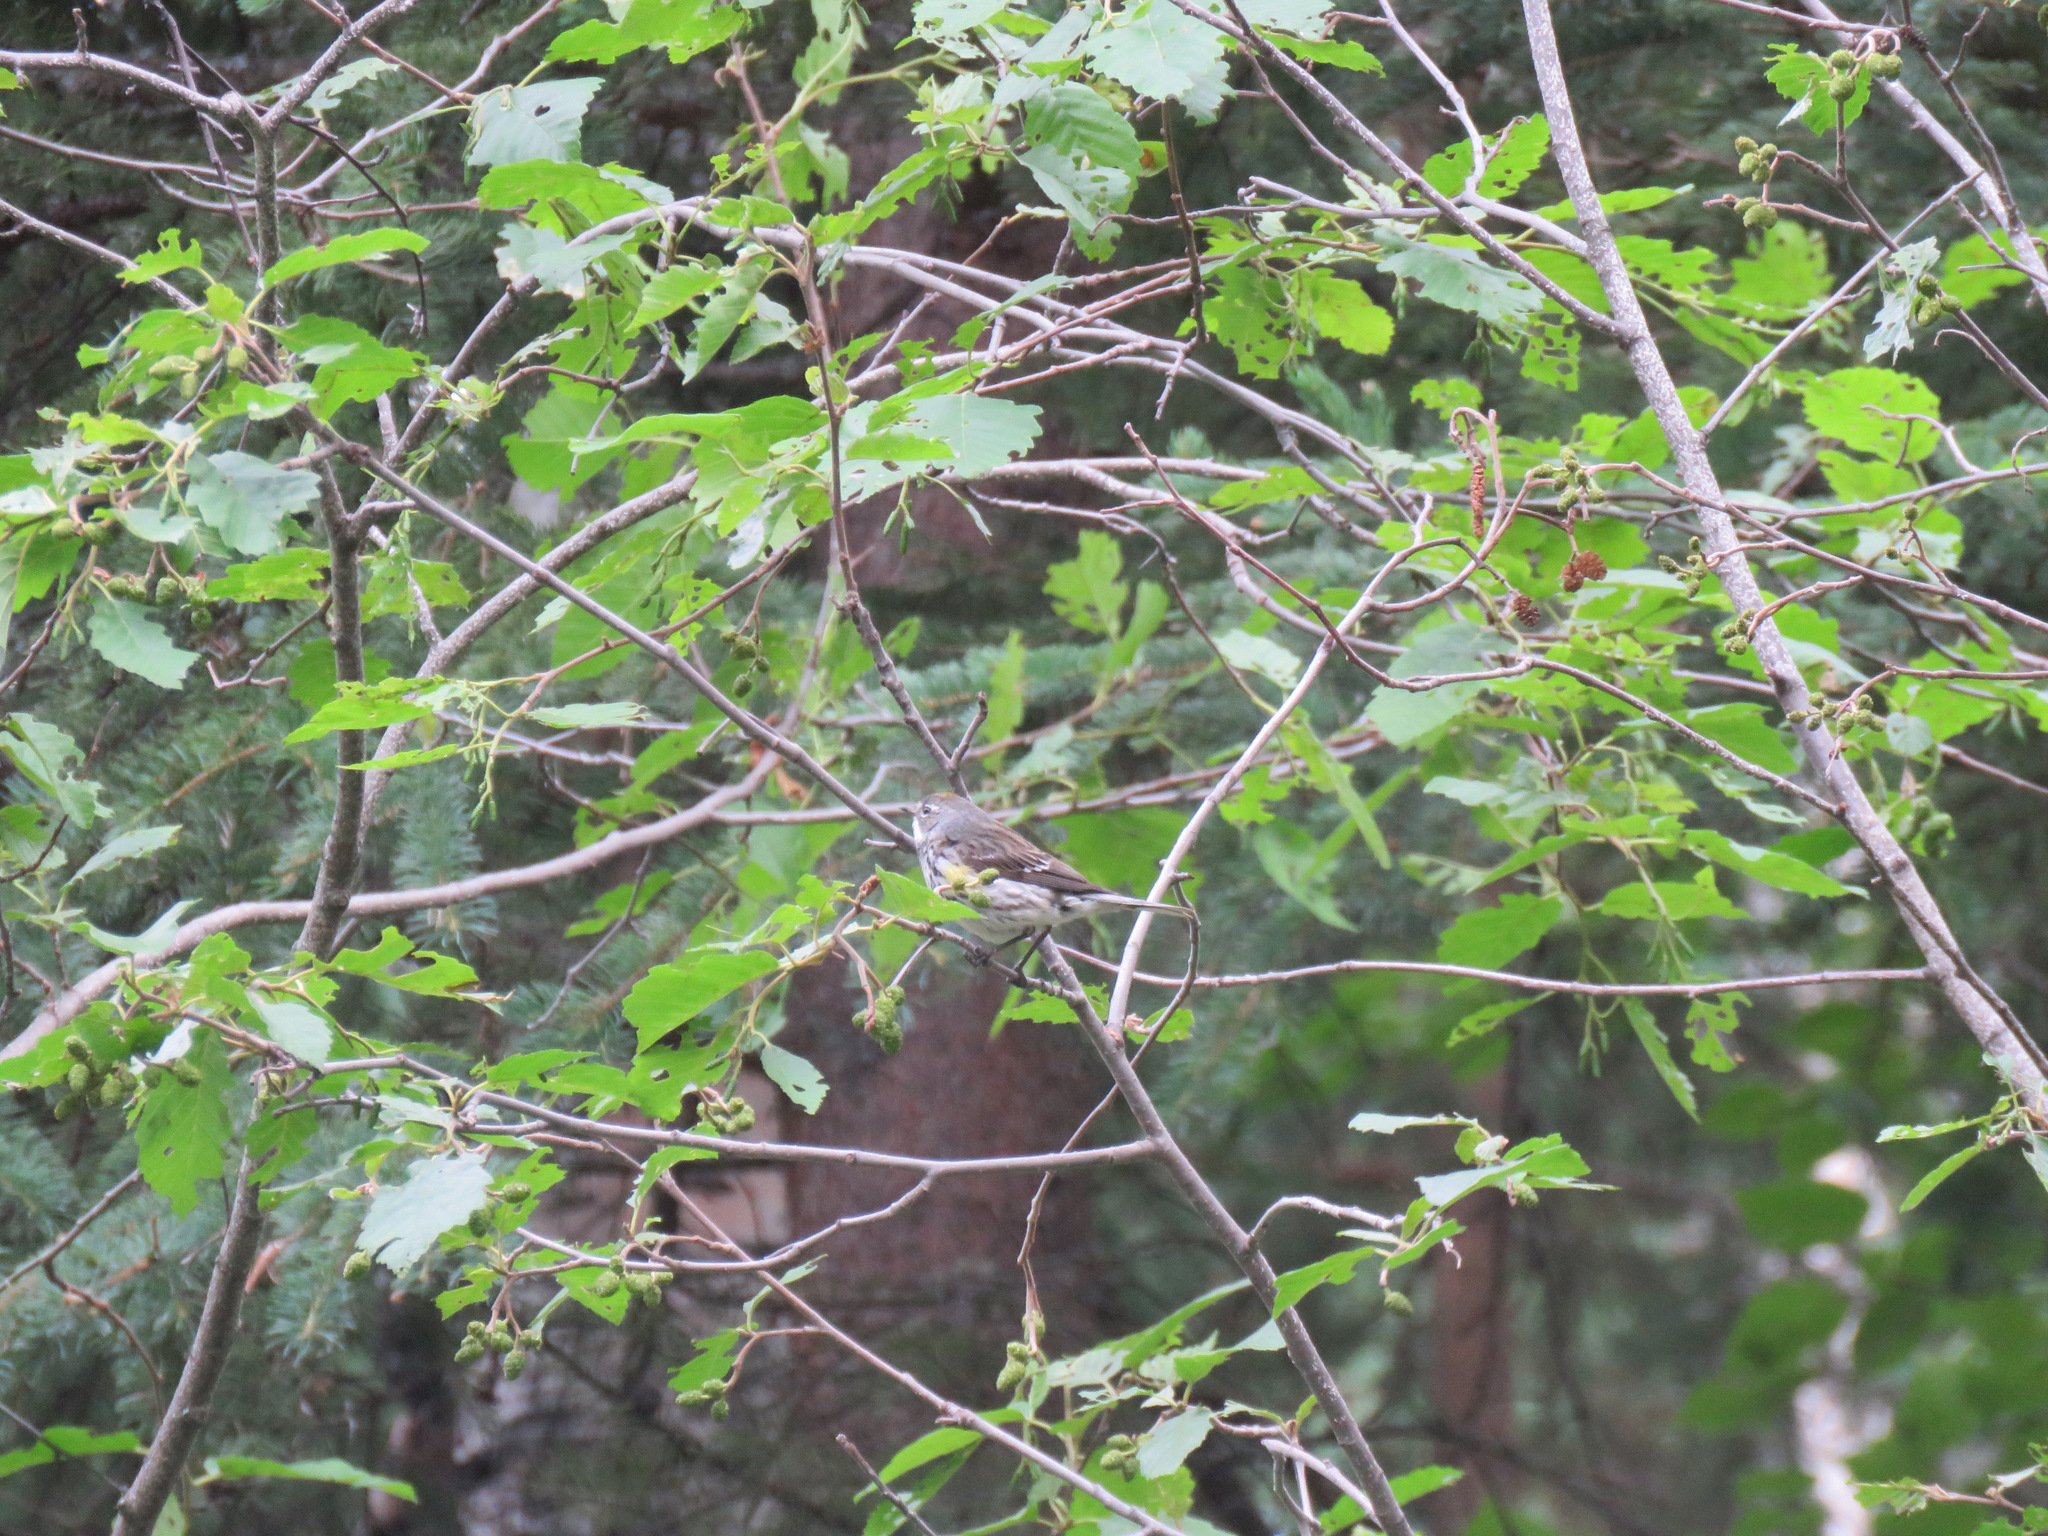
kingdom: Animalia
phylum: Chordata
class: Aves
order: Passeriformes
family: Parulidae
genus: Setophaga
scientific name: Setophaga coronata
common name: Myrtle warbler
